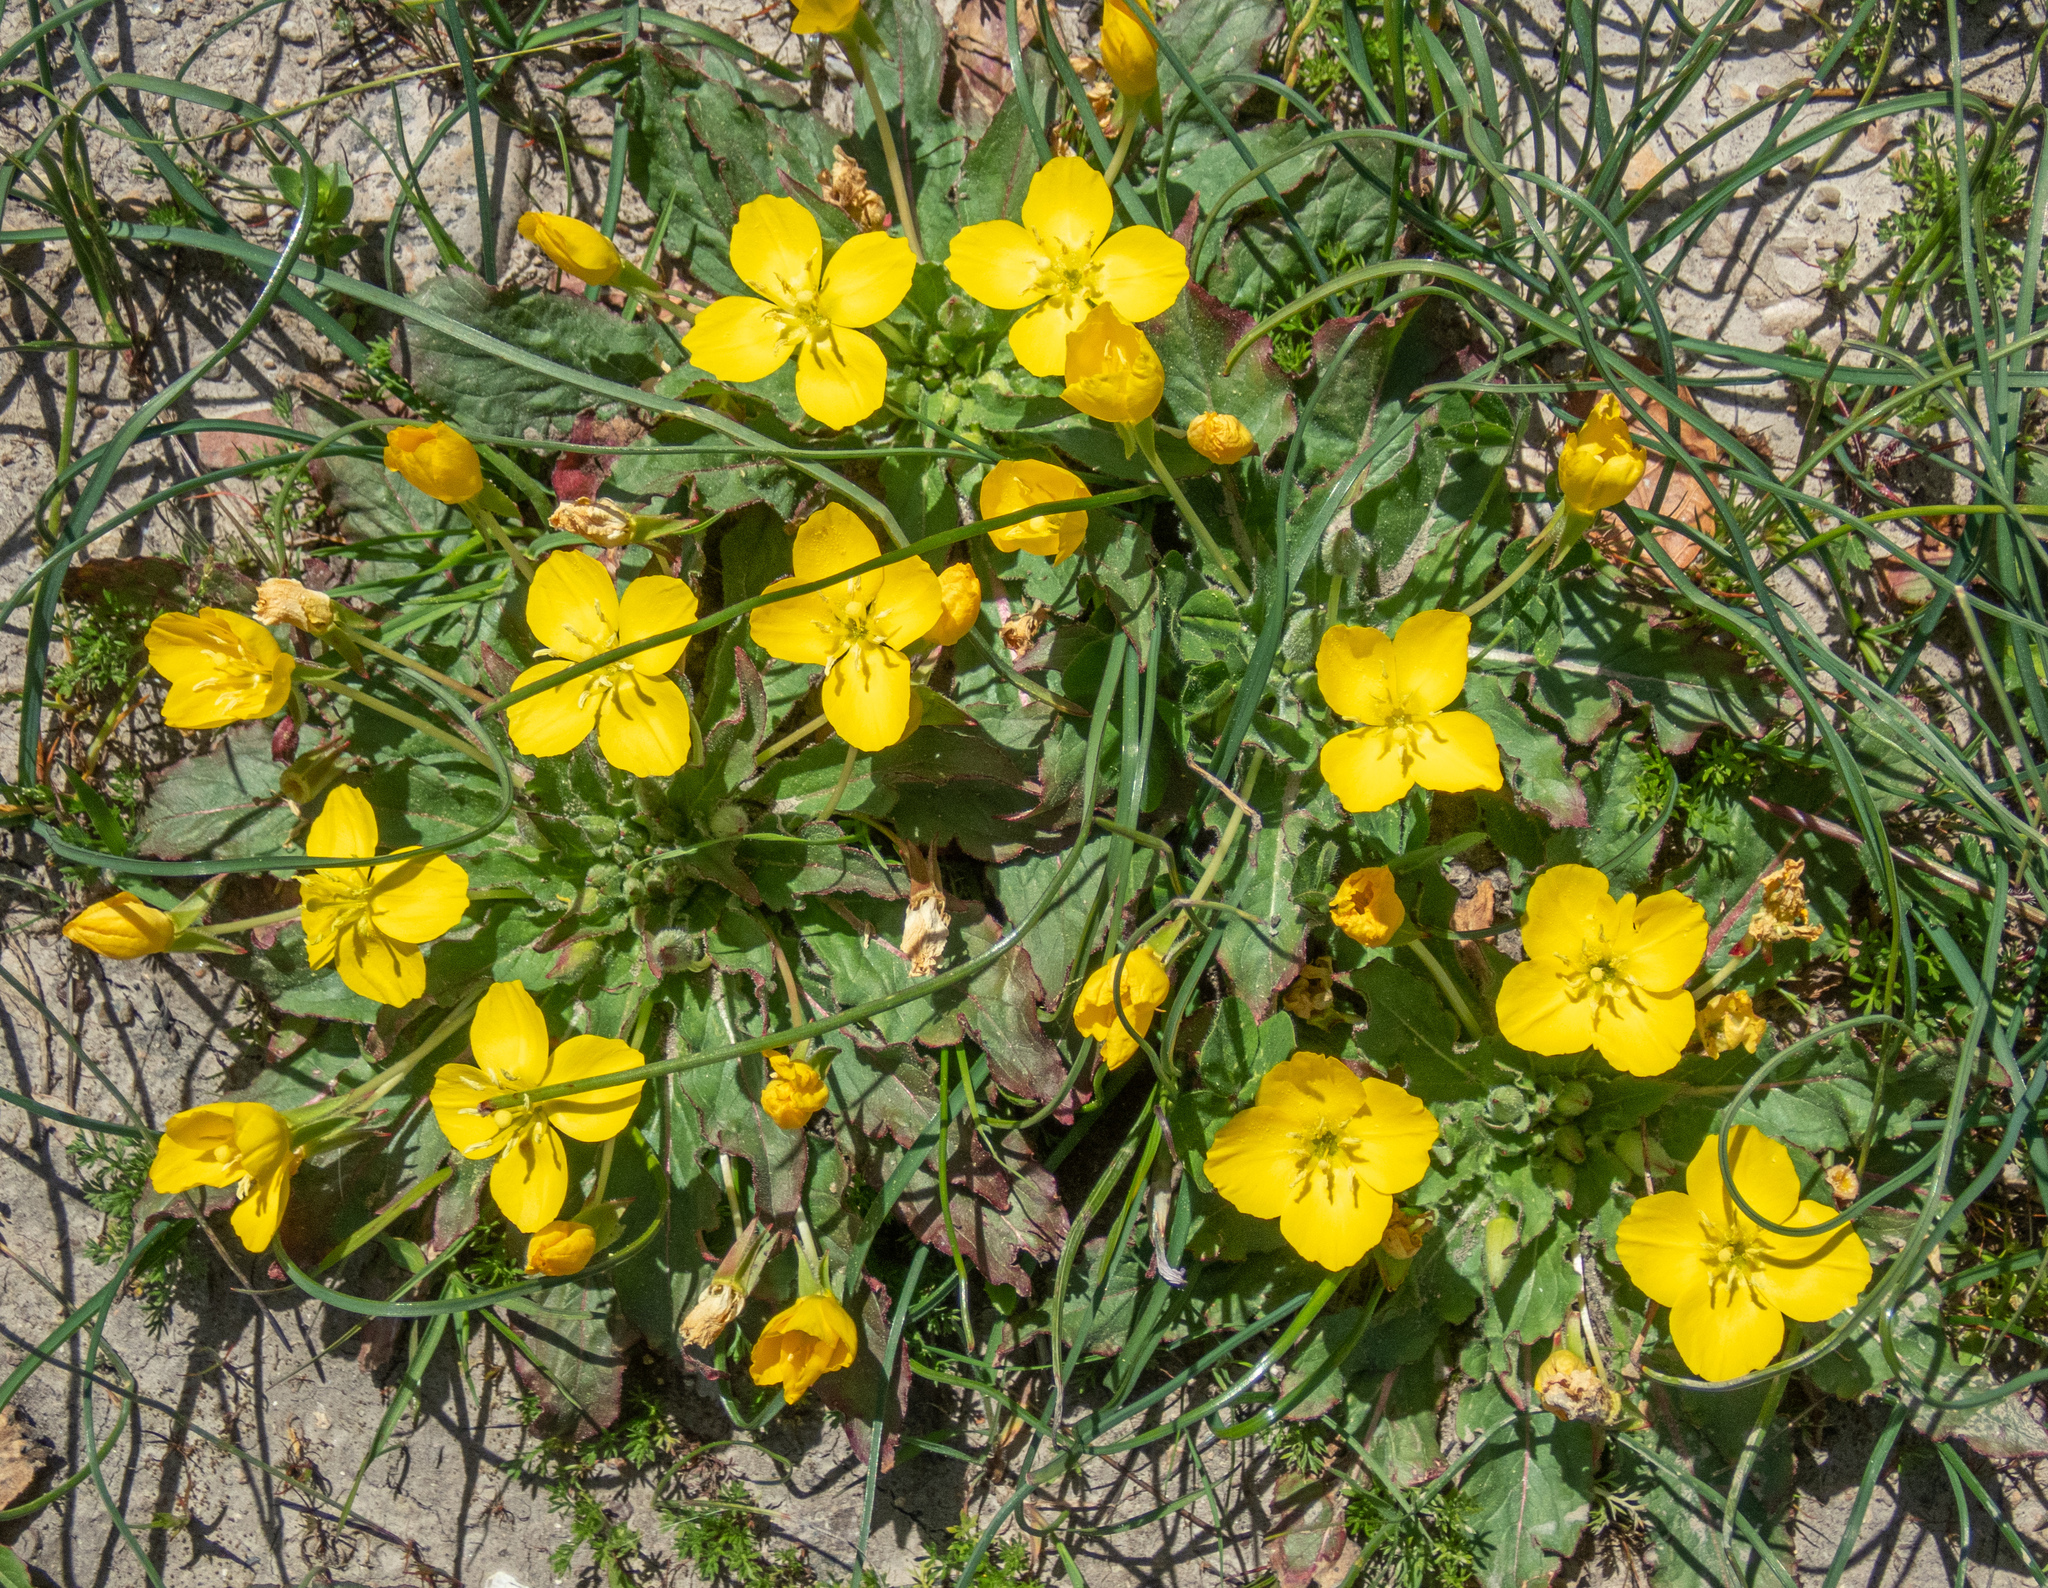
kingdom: Plantae
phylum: Tracheophyta
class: Magnoliopsida
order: Myrtales
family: Onagraceae
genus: Taraxia
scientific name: Taraxia ovata
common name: Goldeneggs
